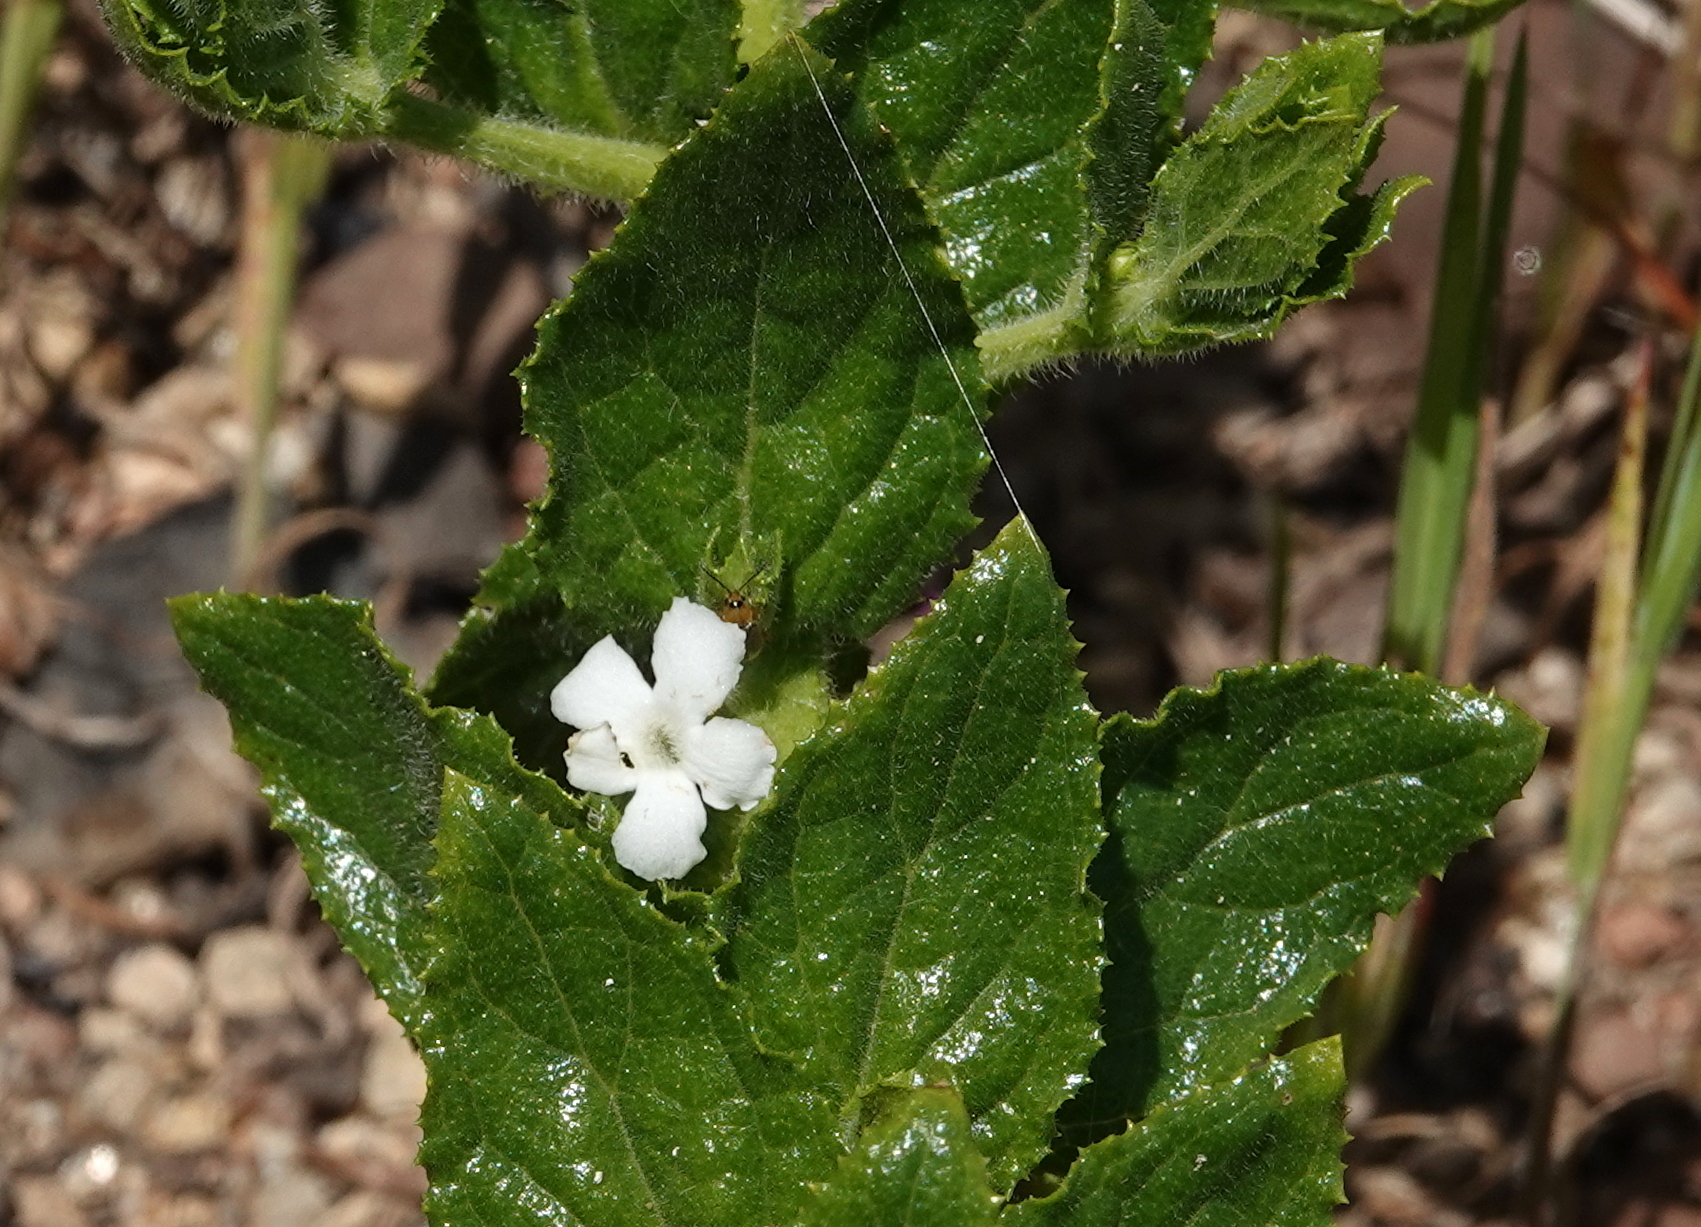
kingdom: Plantae
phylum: Tracheophyta
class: Magnoliopsida
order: Lamiales
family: Scrophulariaceae
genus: Oftia
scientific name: Oftia africana
